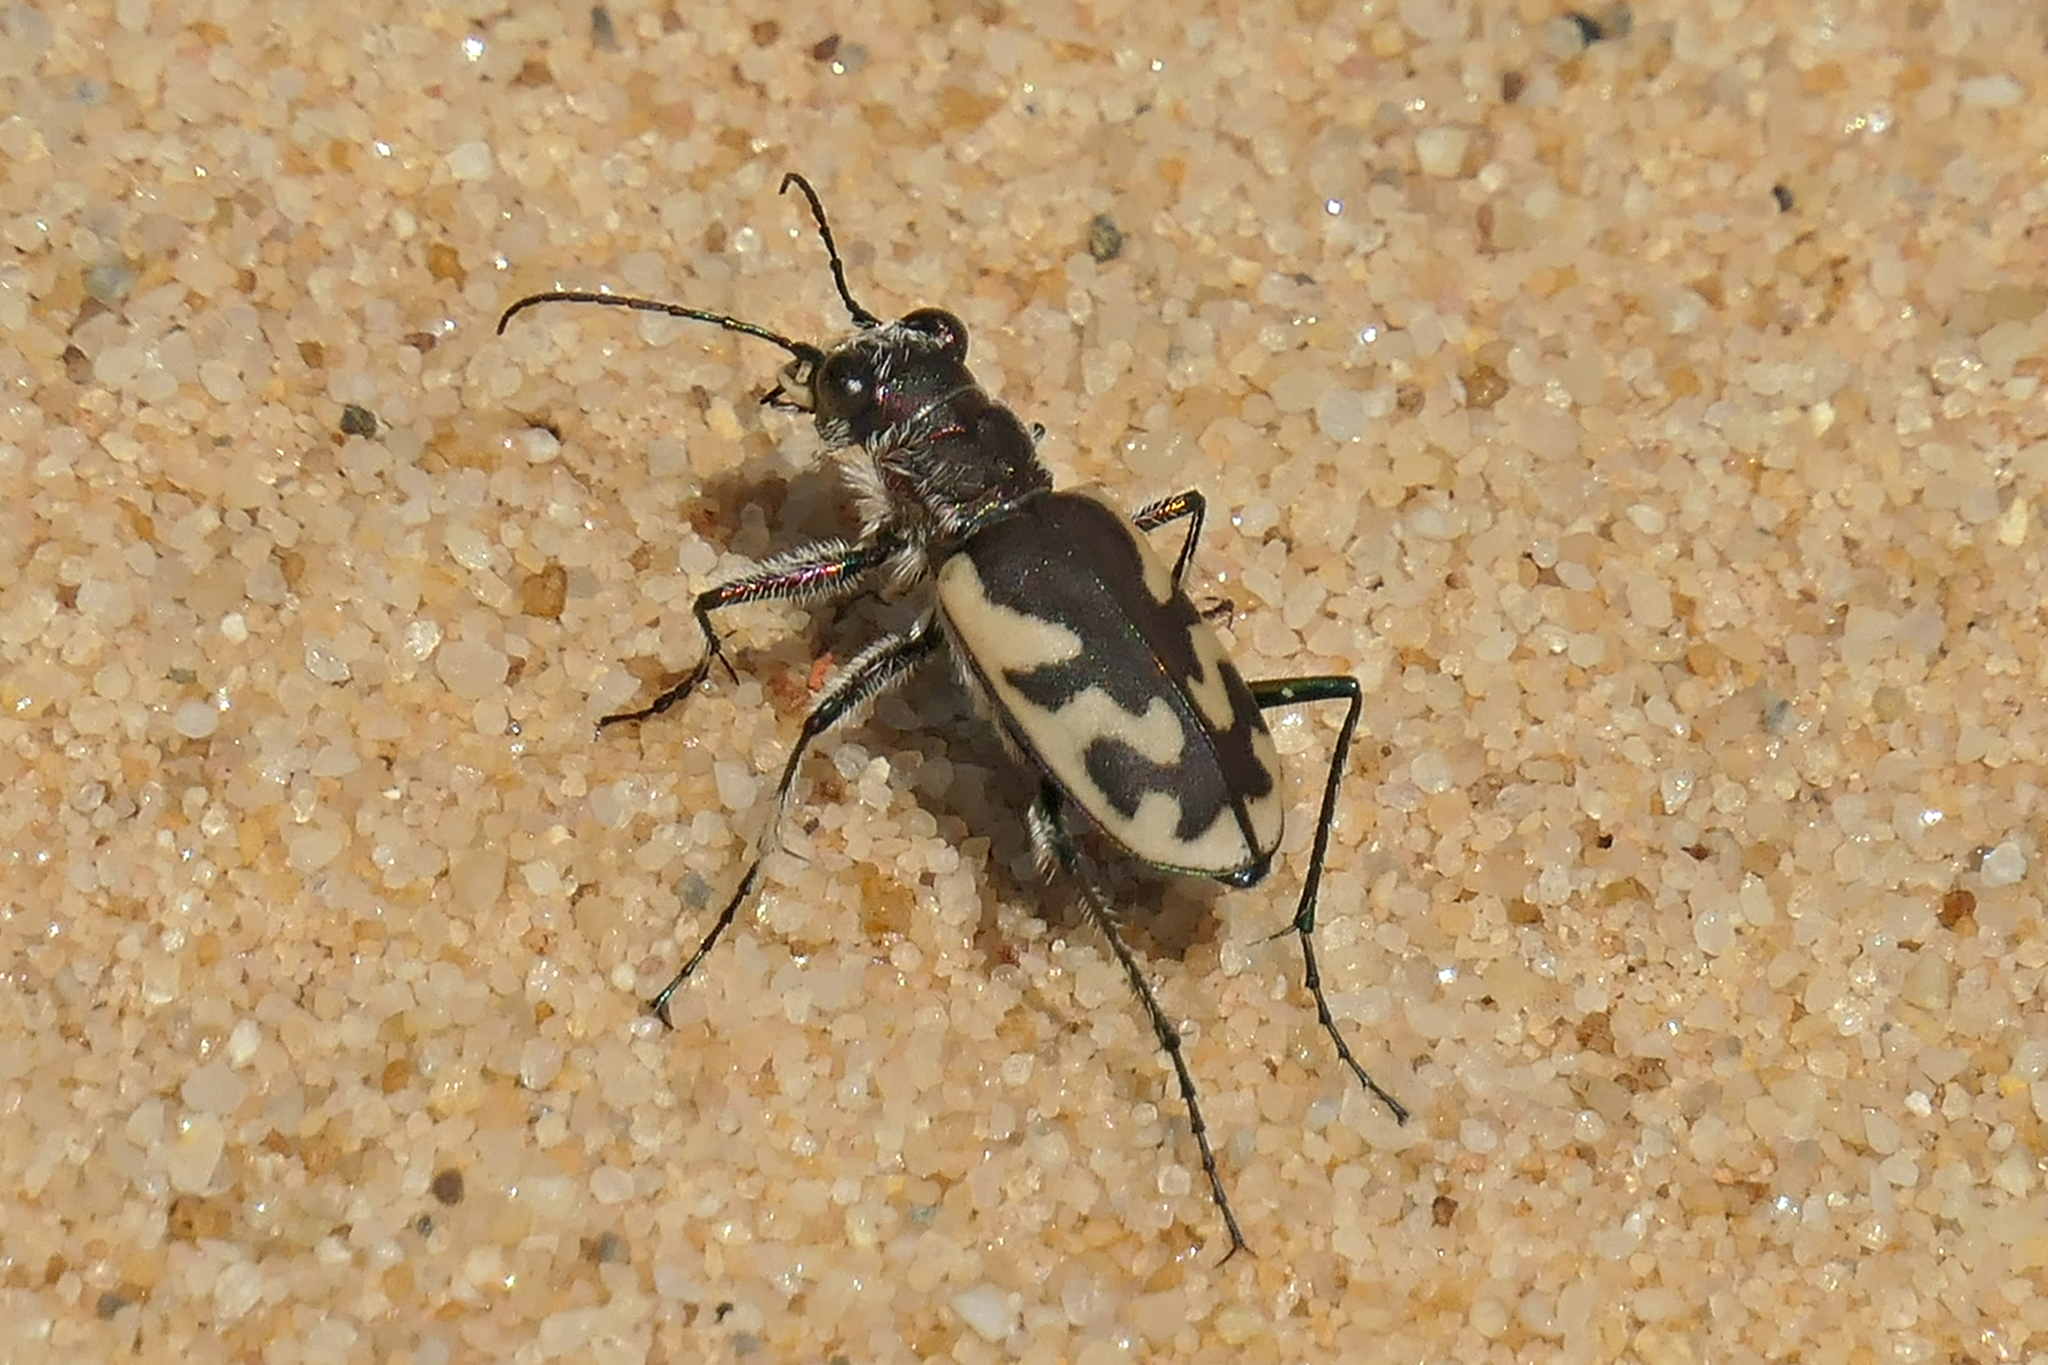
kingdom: Animalia
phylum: Arthropoda
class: Insecta
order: Coleoptera
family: Carabidae
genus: Cicindela
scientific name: Cicindela formosa
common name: Big sand tiger beetle
